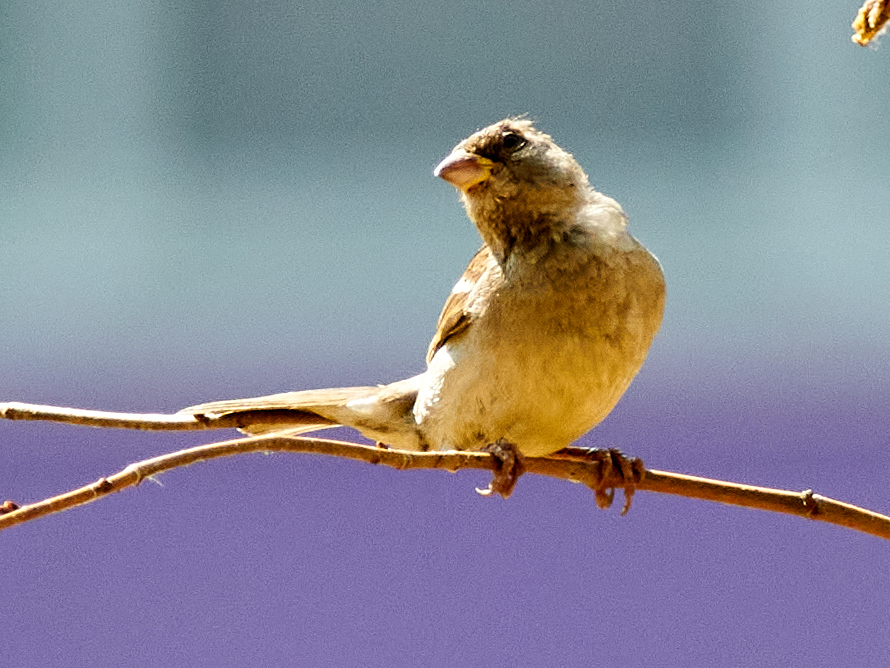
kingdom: Animalia
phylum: Chordata
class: Aves
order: Passeriformes
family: Passeridae
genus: Passer
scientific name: Passer domesticus
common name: House sparrow
